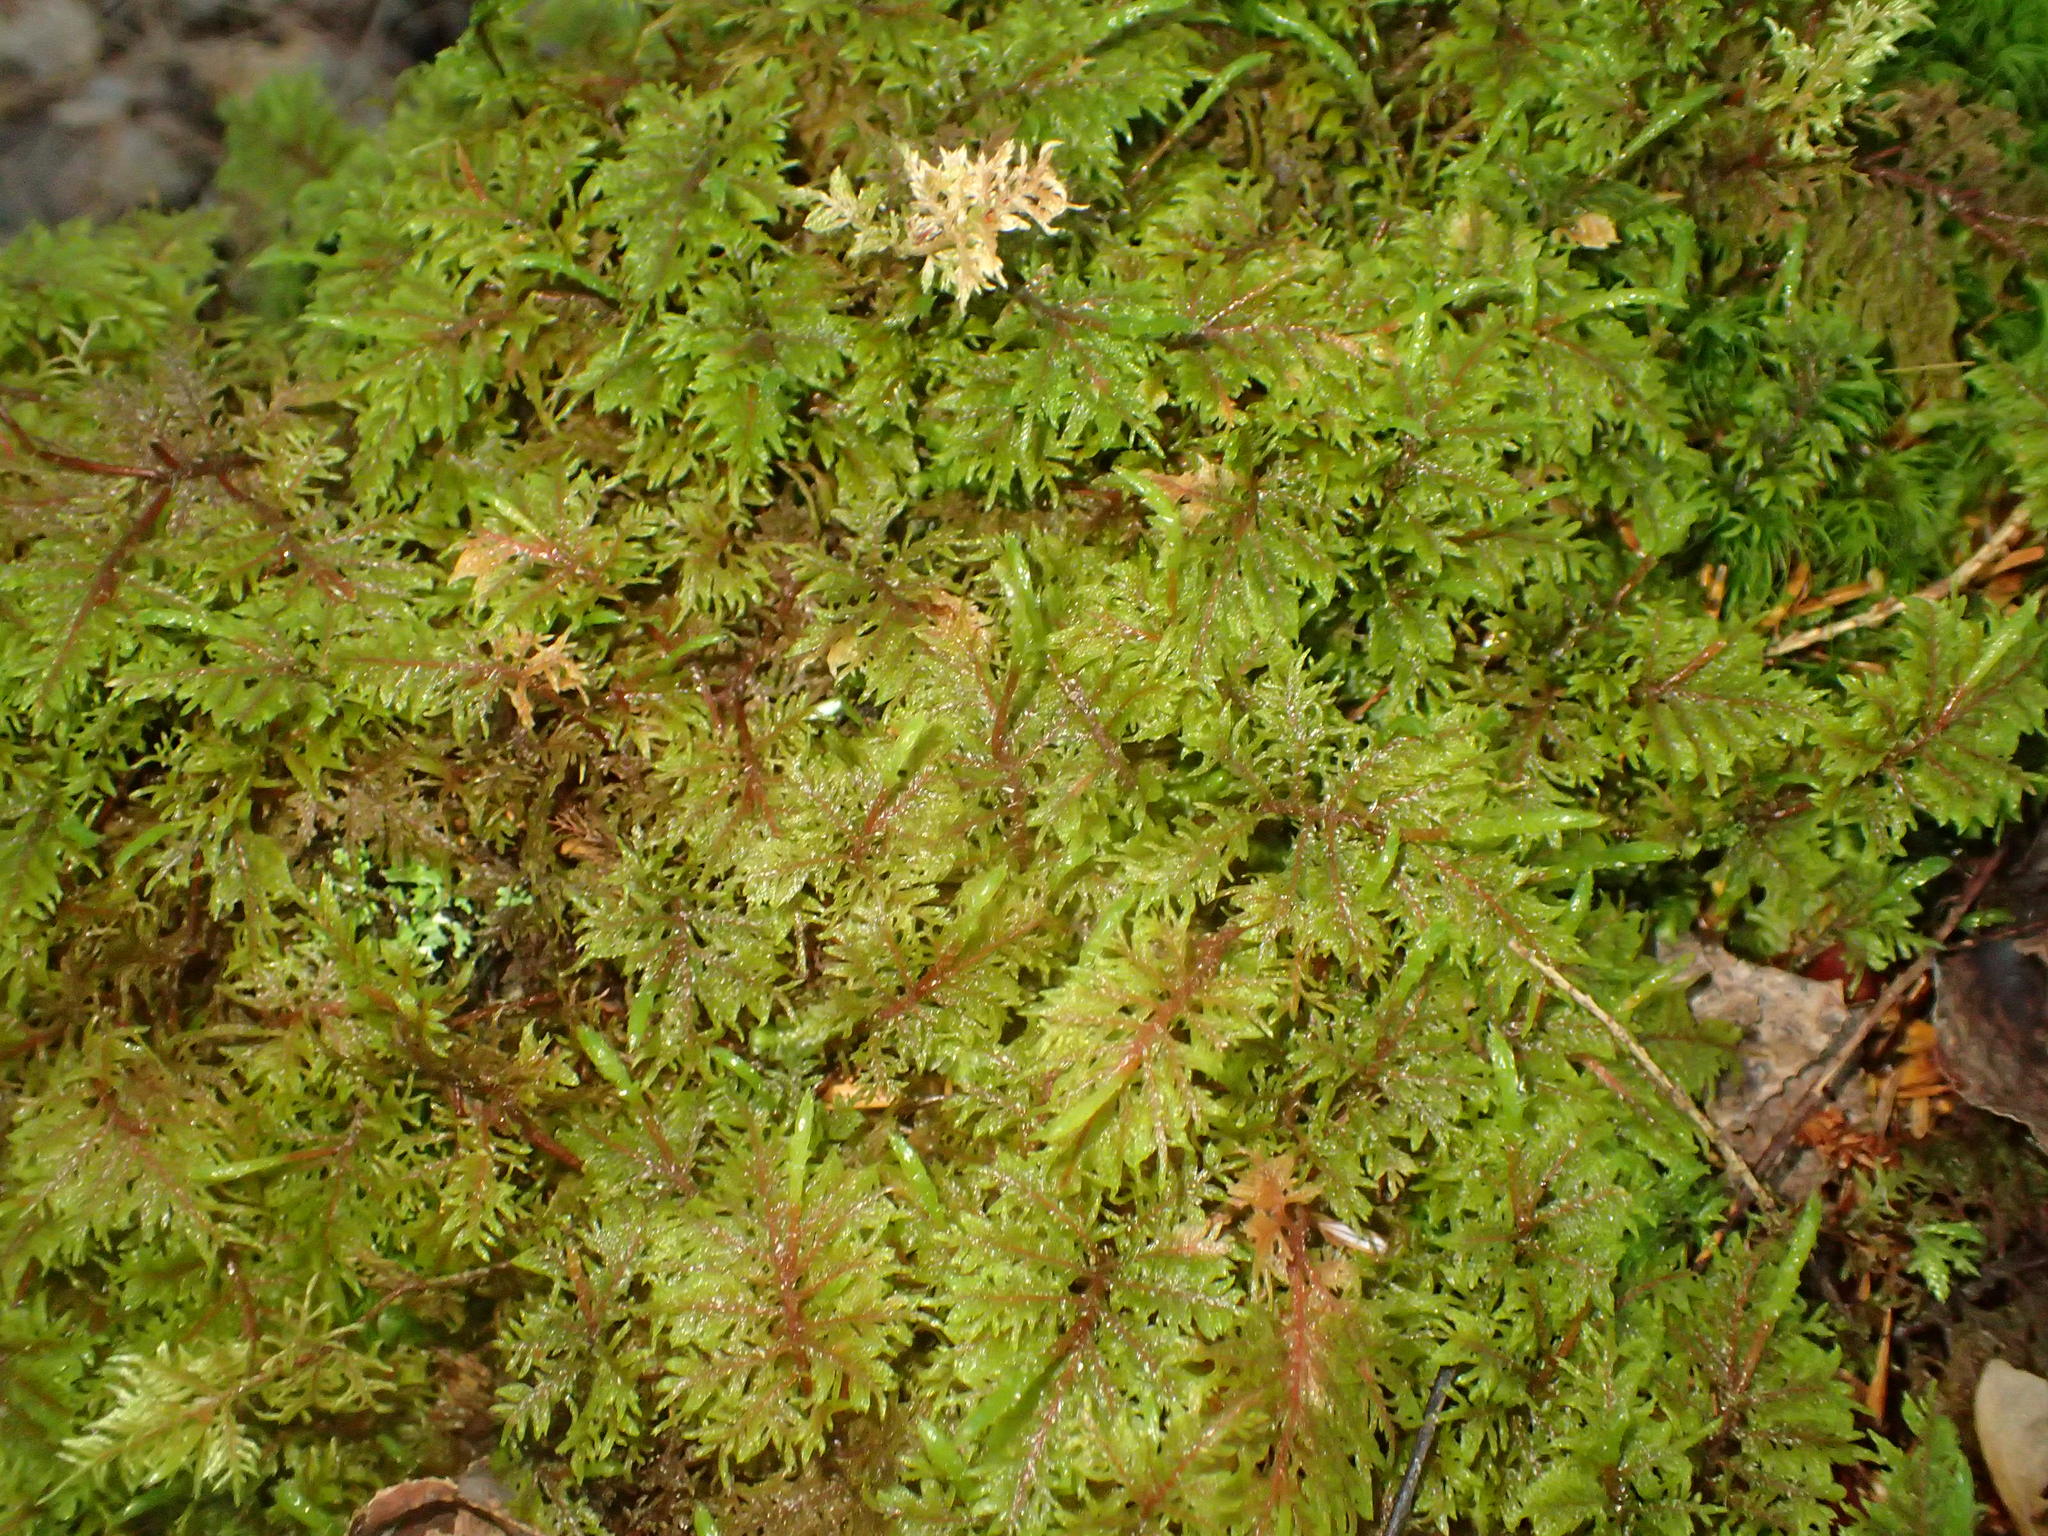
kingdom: Plantae
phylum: Bryophyta
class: Bryopsida
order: Hypnales
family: Hylocomiaceae
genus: Hylocomium
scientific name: Hylocomium splendens
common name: Stairstep moss
